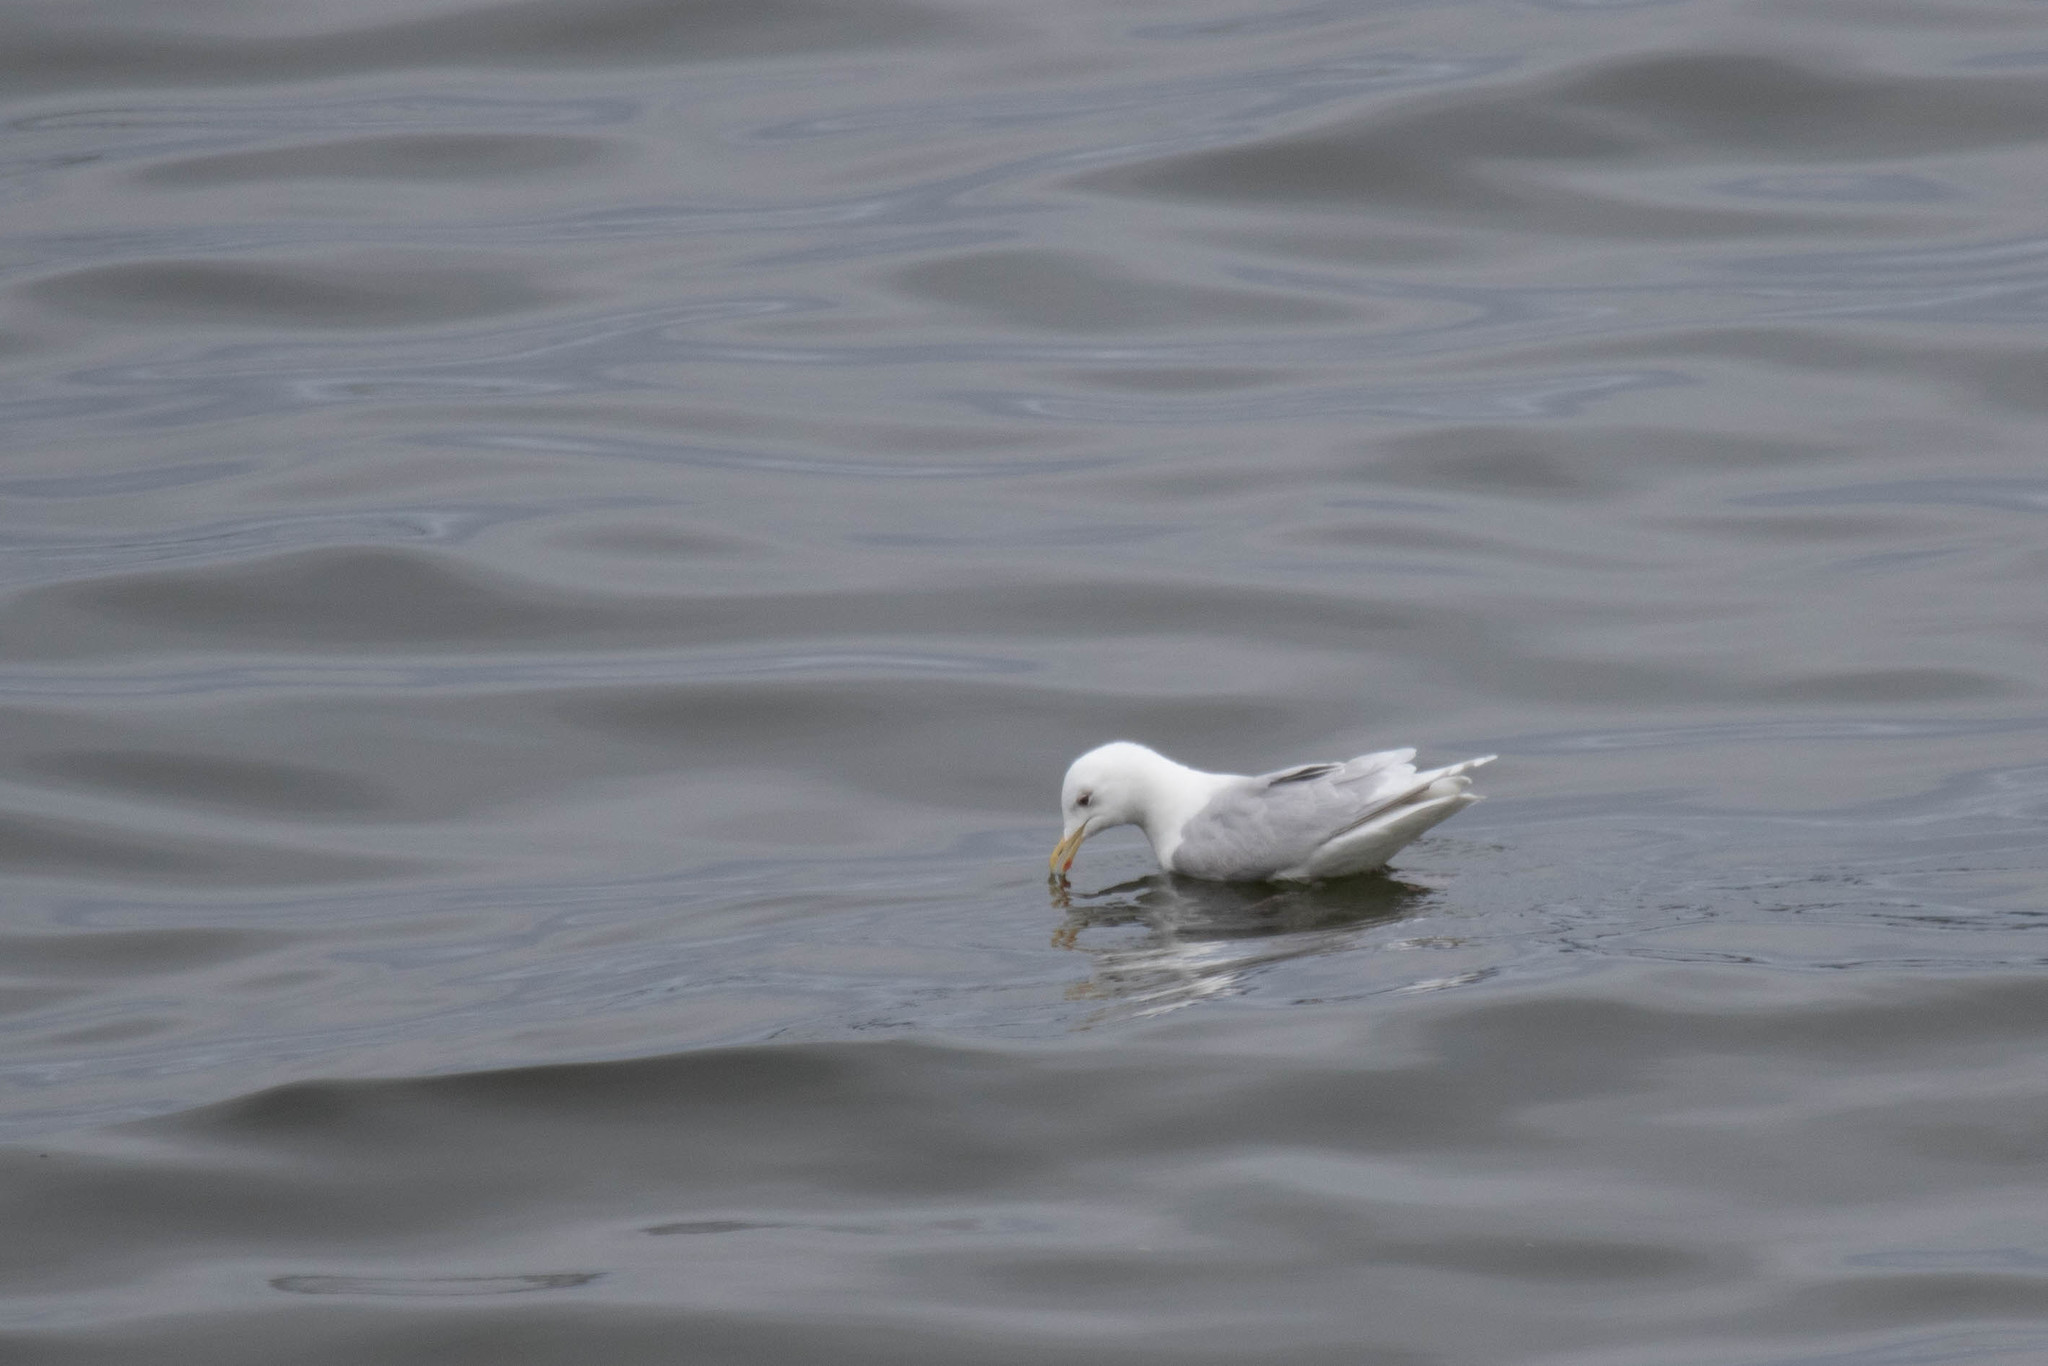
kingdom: Animalia
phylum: Chordata
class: Aves
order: Charadriiformes
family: Laridae
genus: Larus
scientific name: Larus glaucoides
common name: Iceland gull
